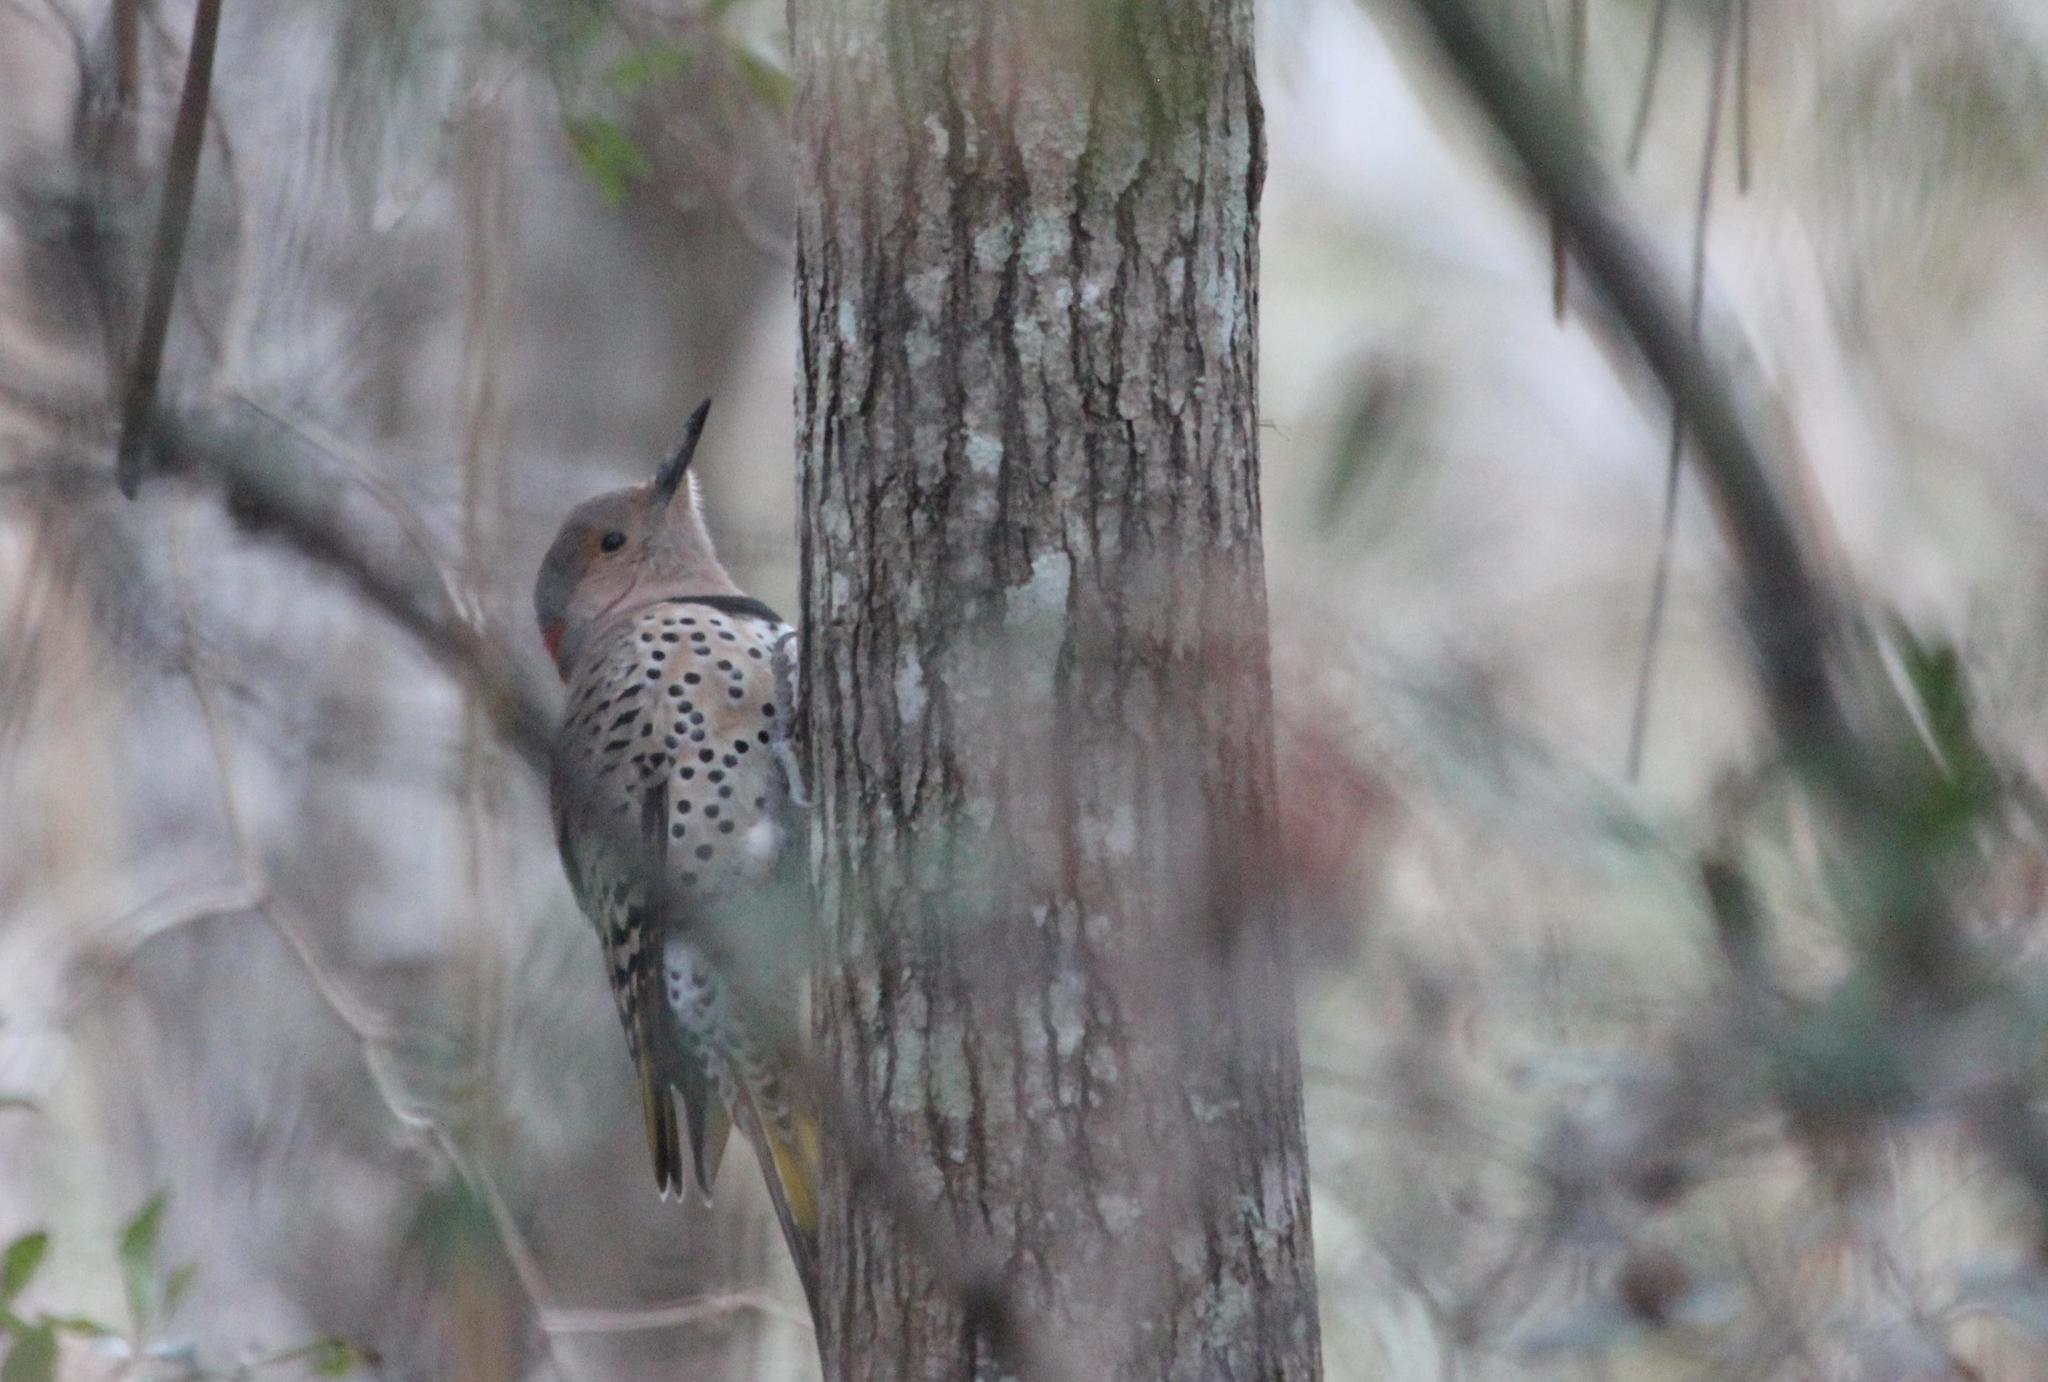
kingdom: Animalia
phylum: Chordata
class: Aves
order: Piciformes
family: Picidae
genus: Colaptes
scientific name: Colaptes auratus
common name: Northern flicker
